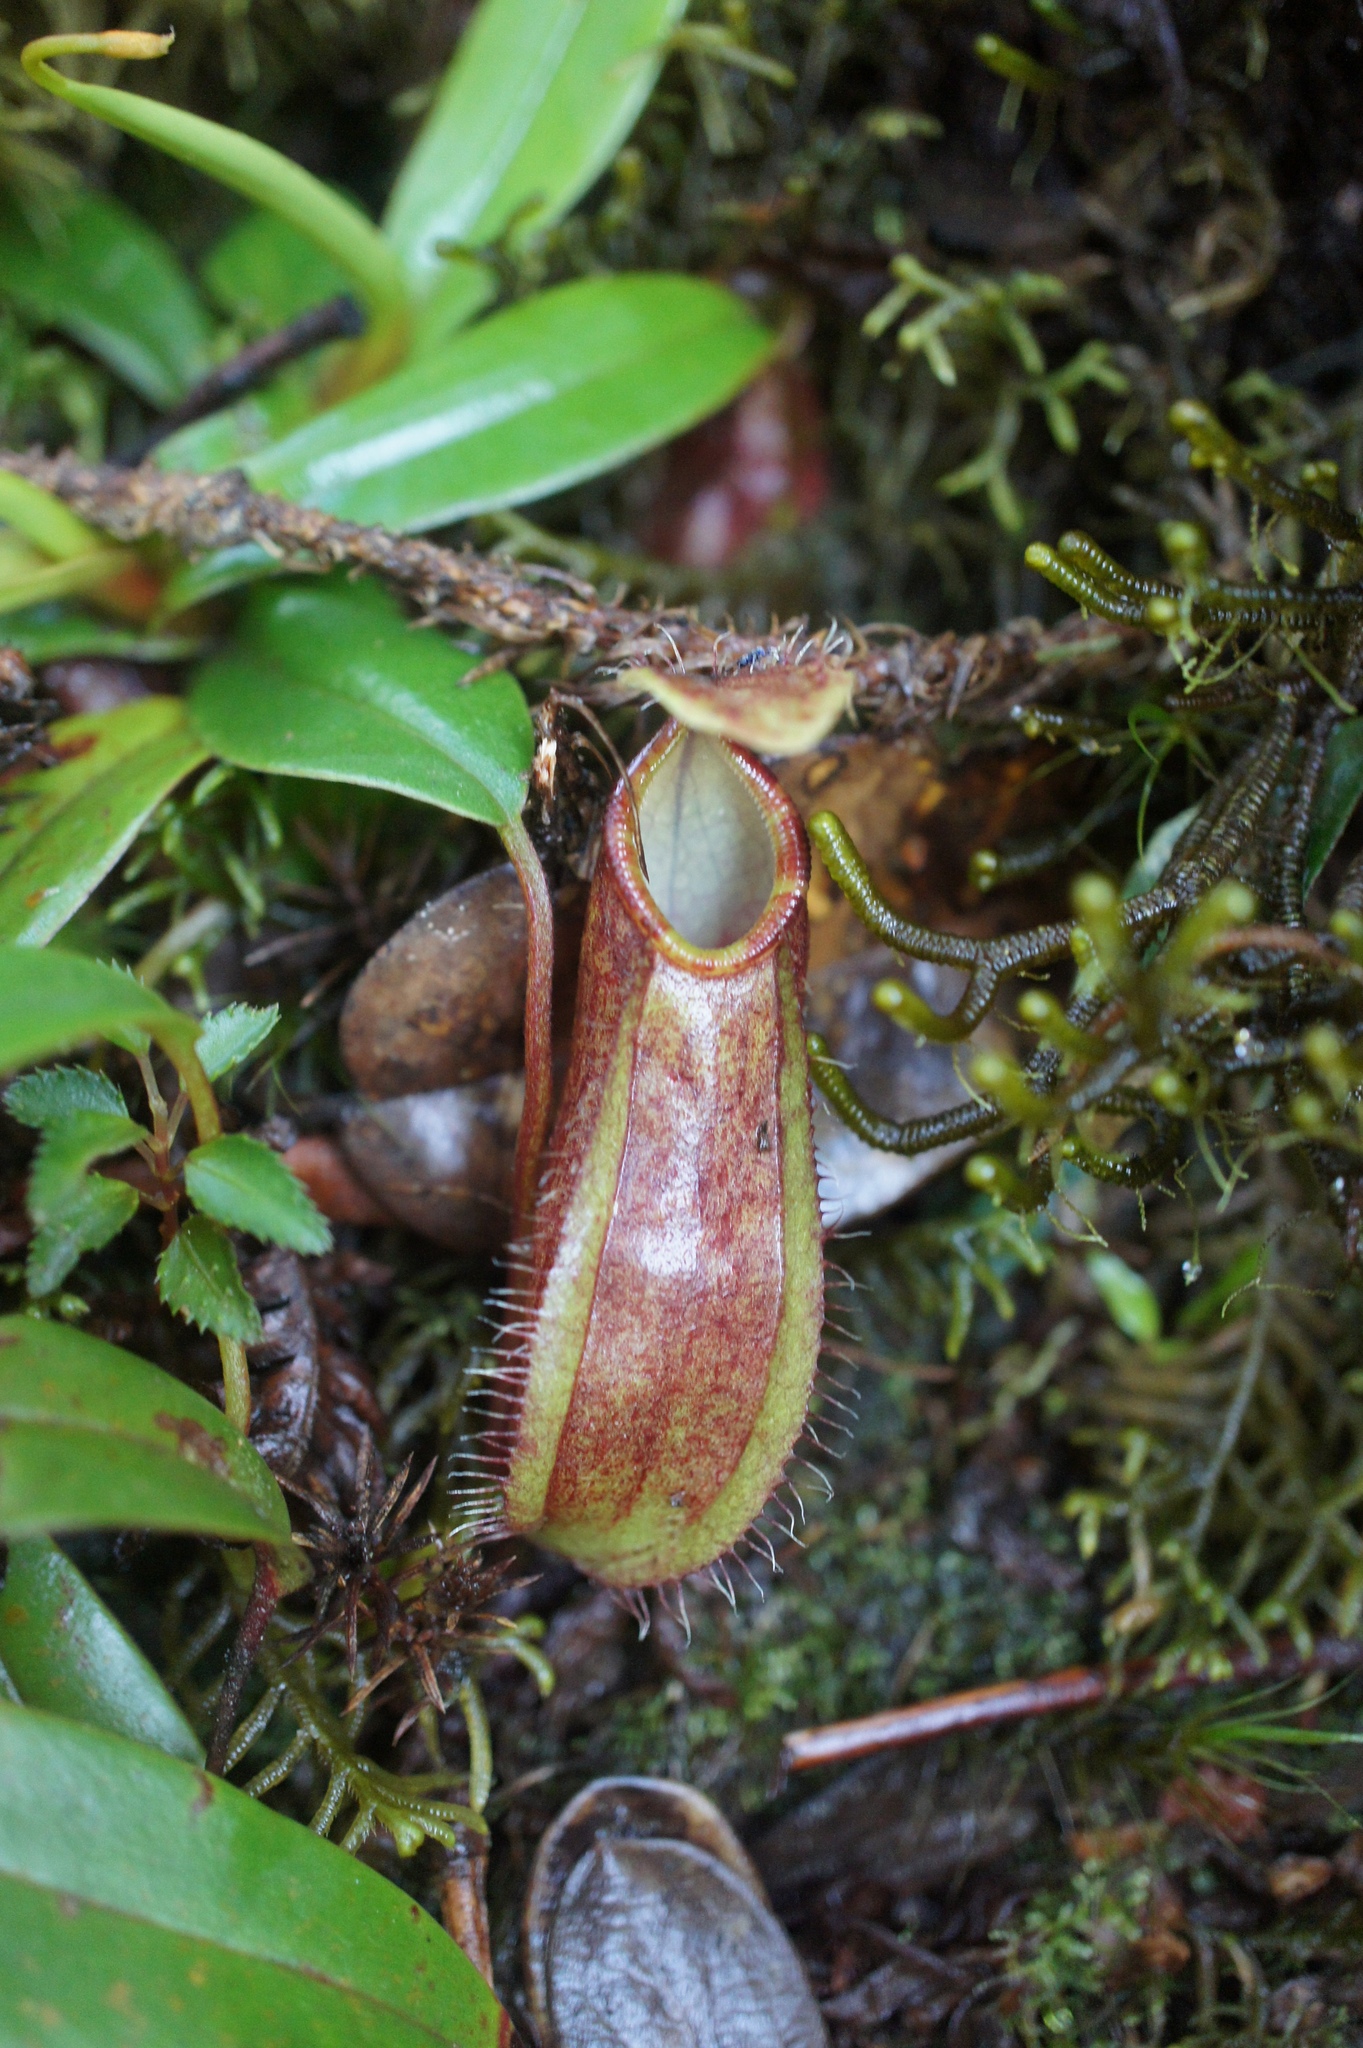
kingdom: Plantae
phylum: Tracheophyta
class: Magnoliopsida
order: Caryophyllales
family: Nepenthaceae
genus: Nepenthes
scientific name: Nepenthes tentaculata
